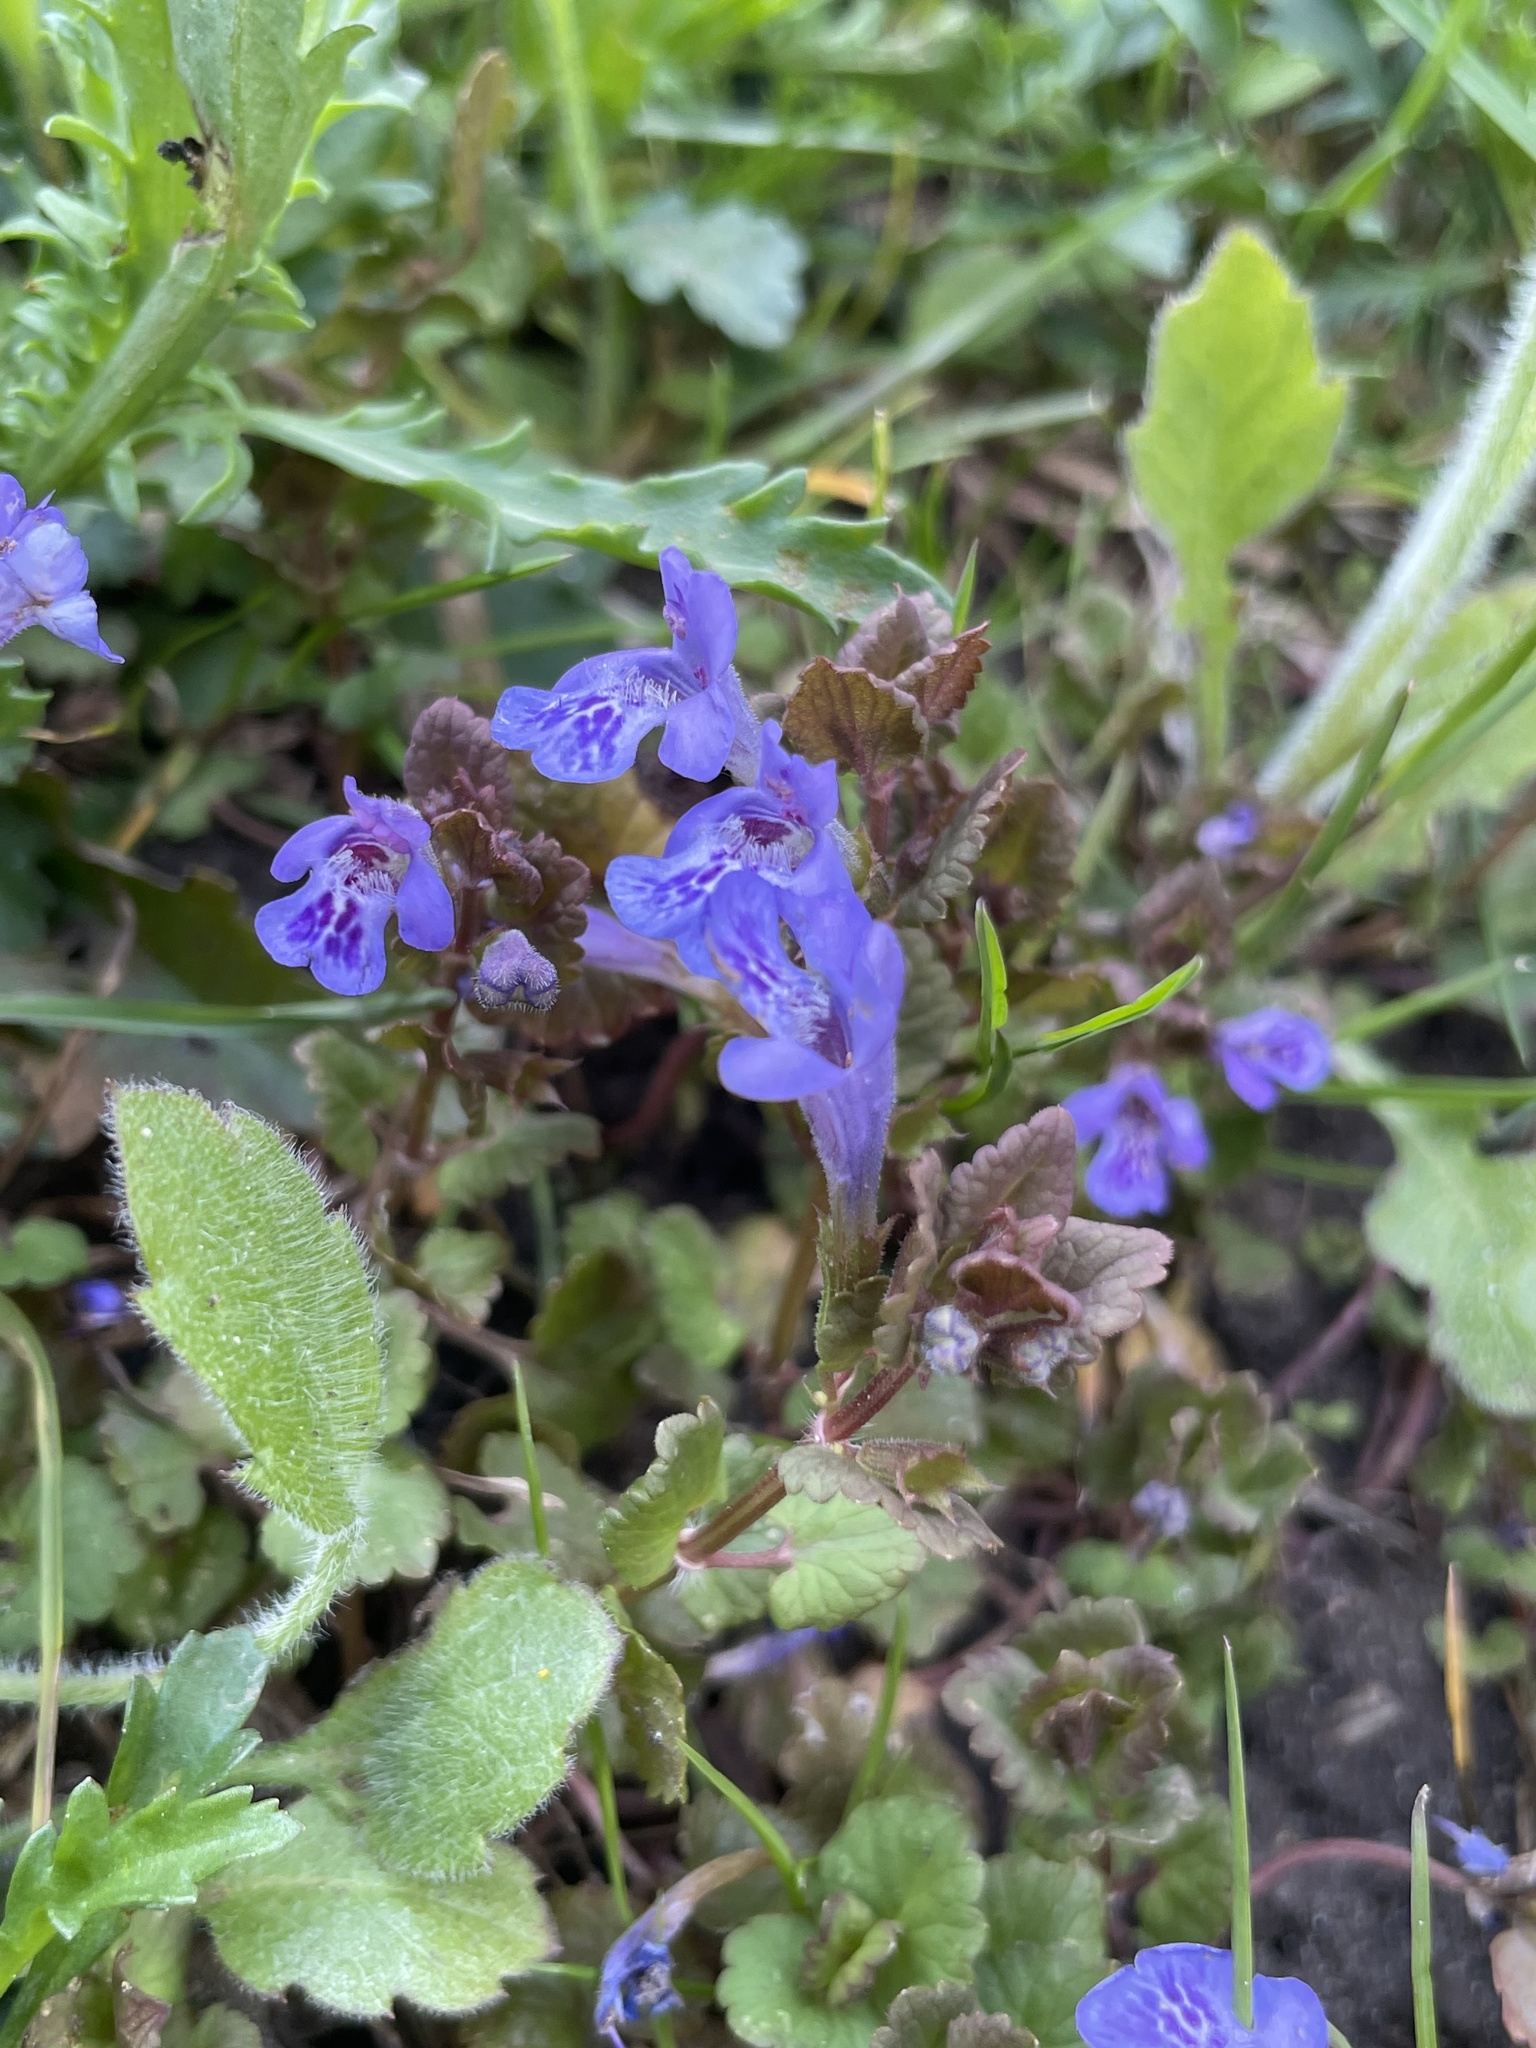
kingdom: Plantae
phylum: Tracheophyta
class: Magnoliopsida
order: Lamiales
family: Lamiaceae
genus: Glechoma
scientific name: Glechoma hederacea
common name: Ground ivy
